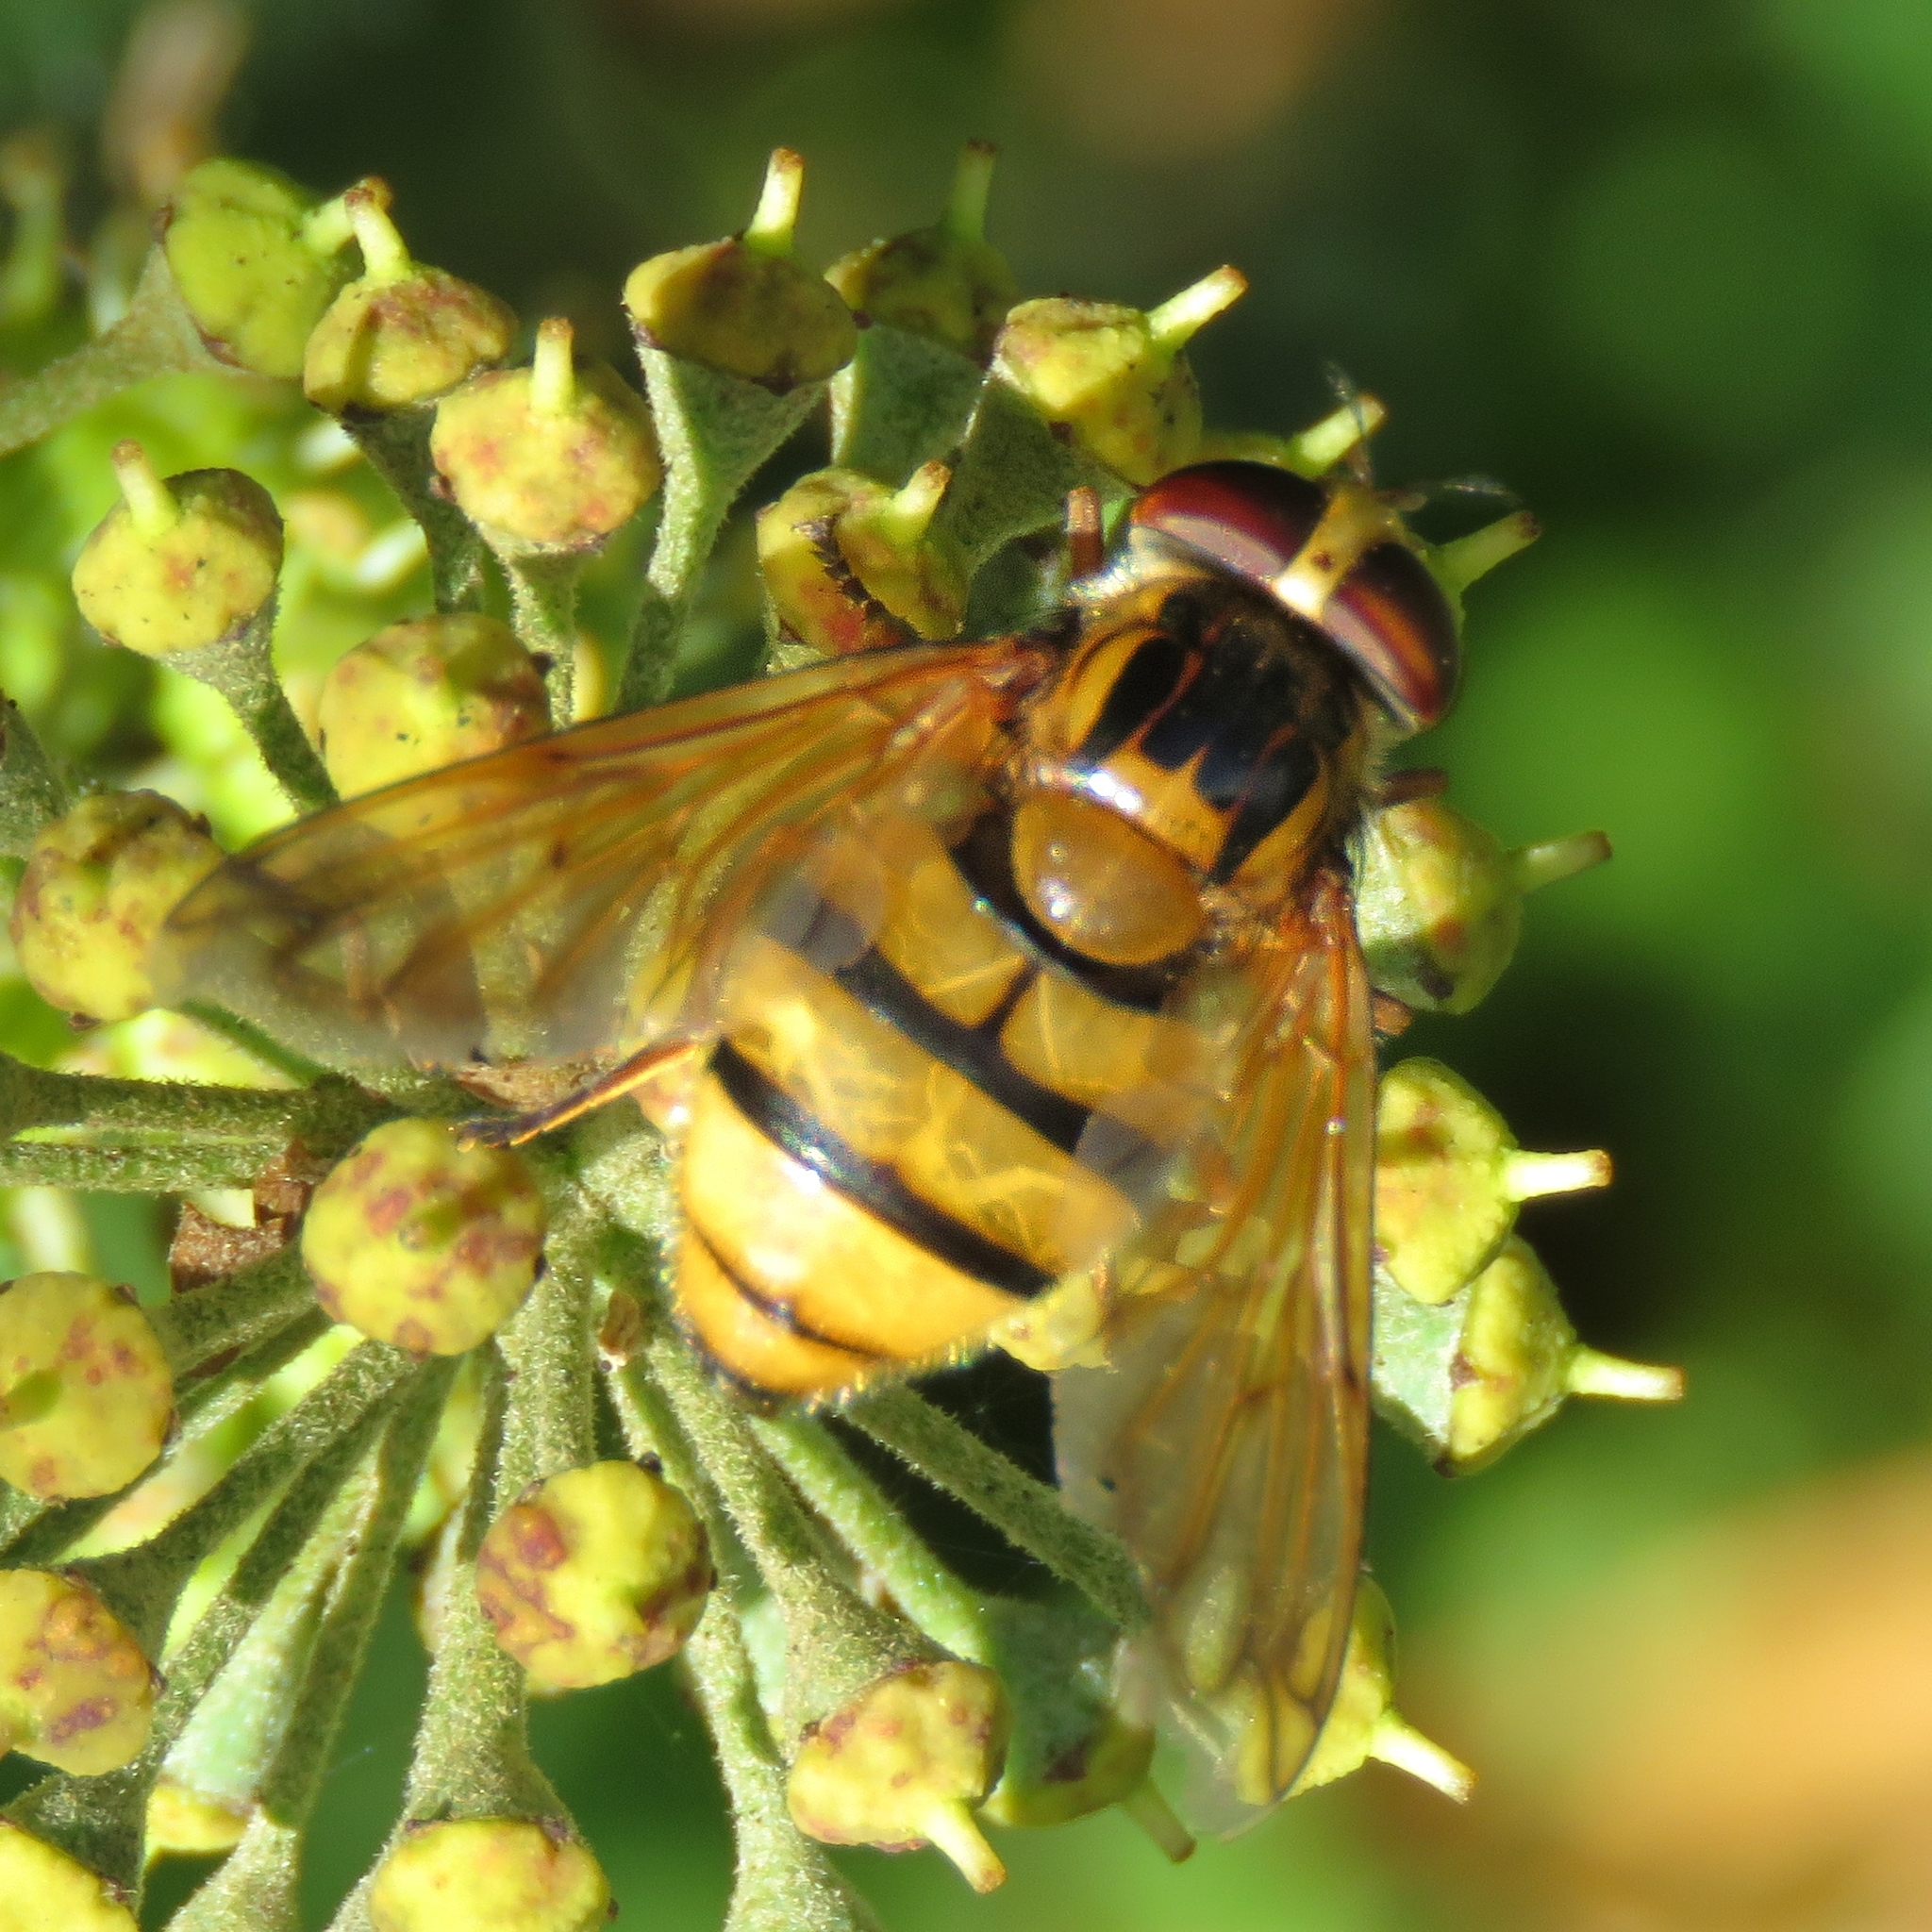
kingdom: Animalia
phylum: Arthropoda
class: Insecta
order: Diptera
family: Syrphidae
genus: Volucella
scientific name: Volucella inanis
